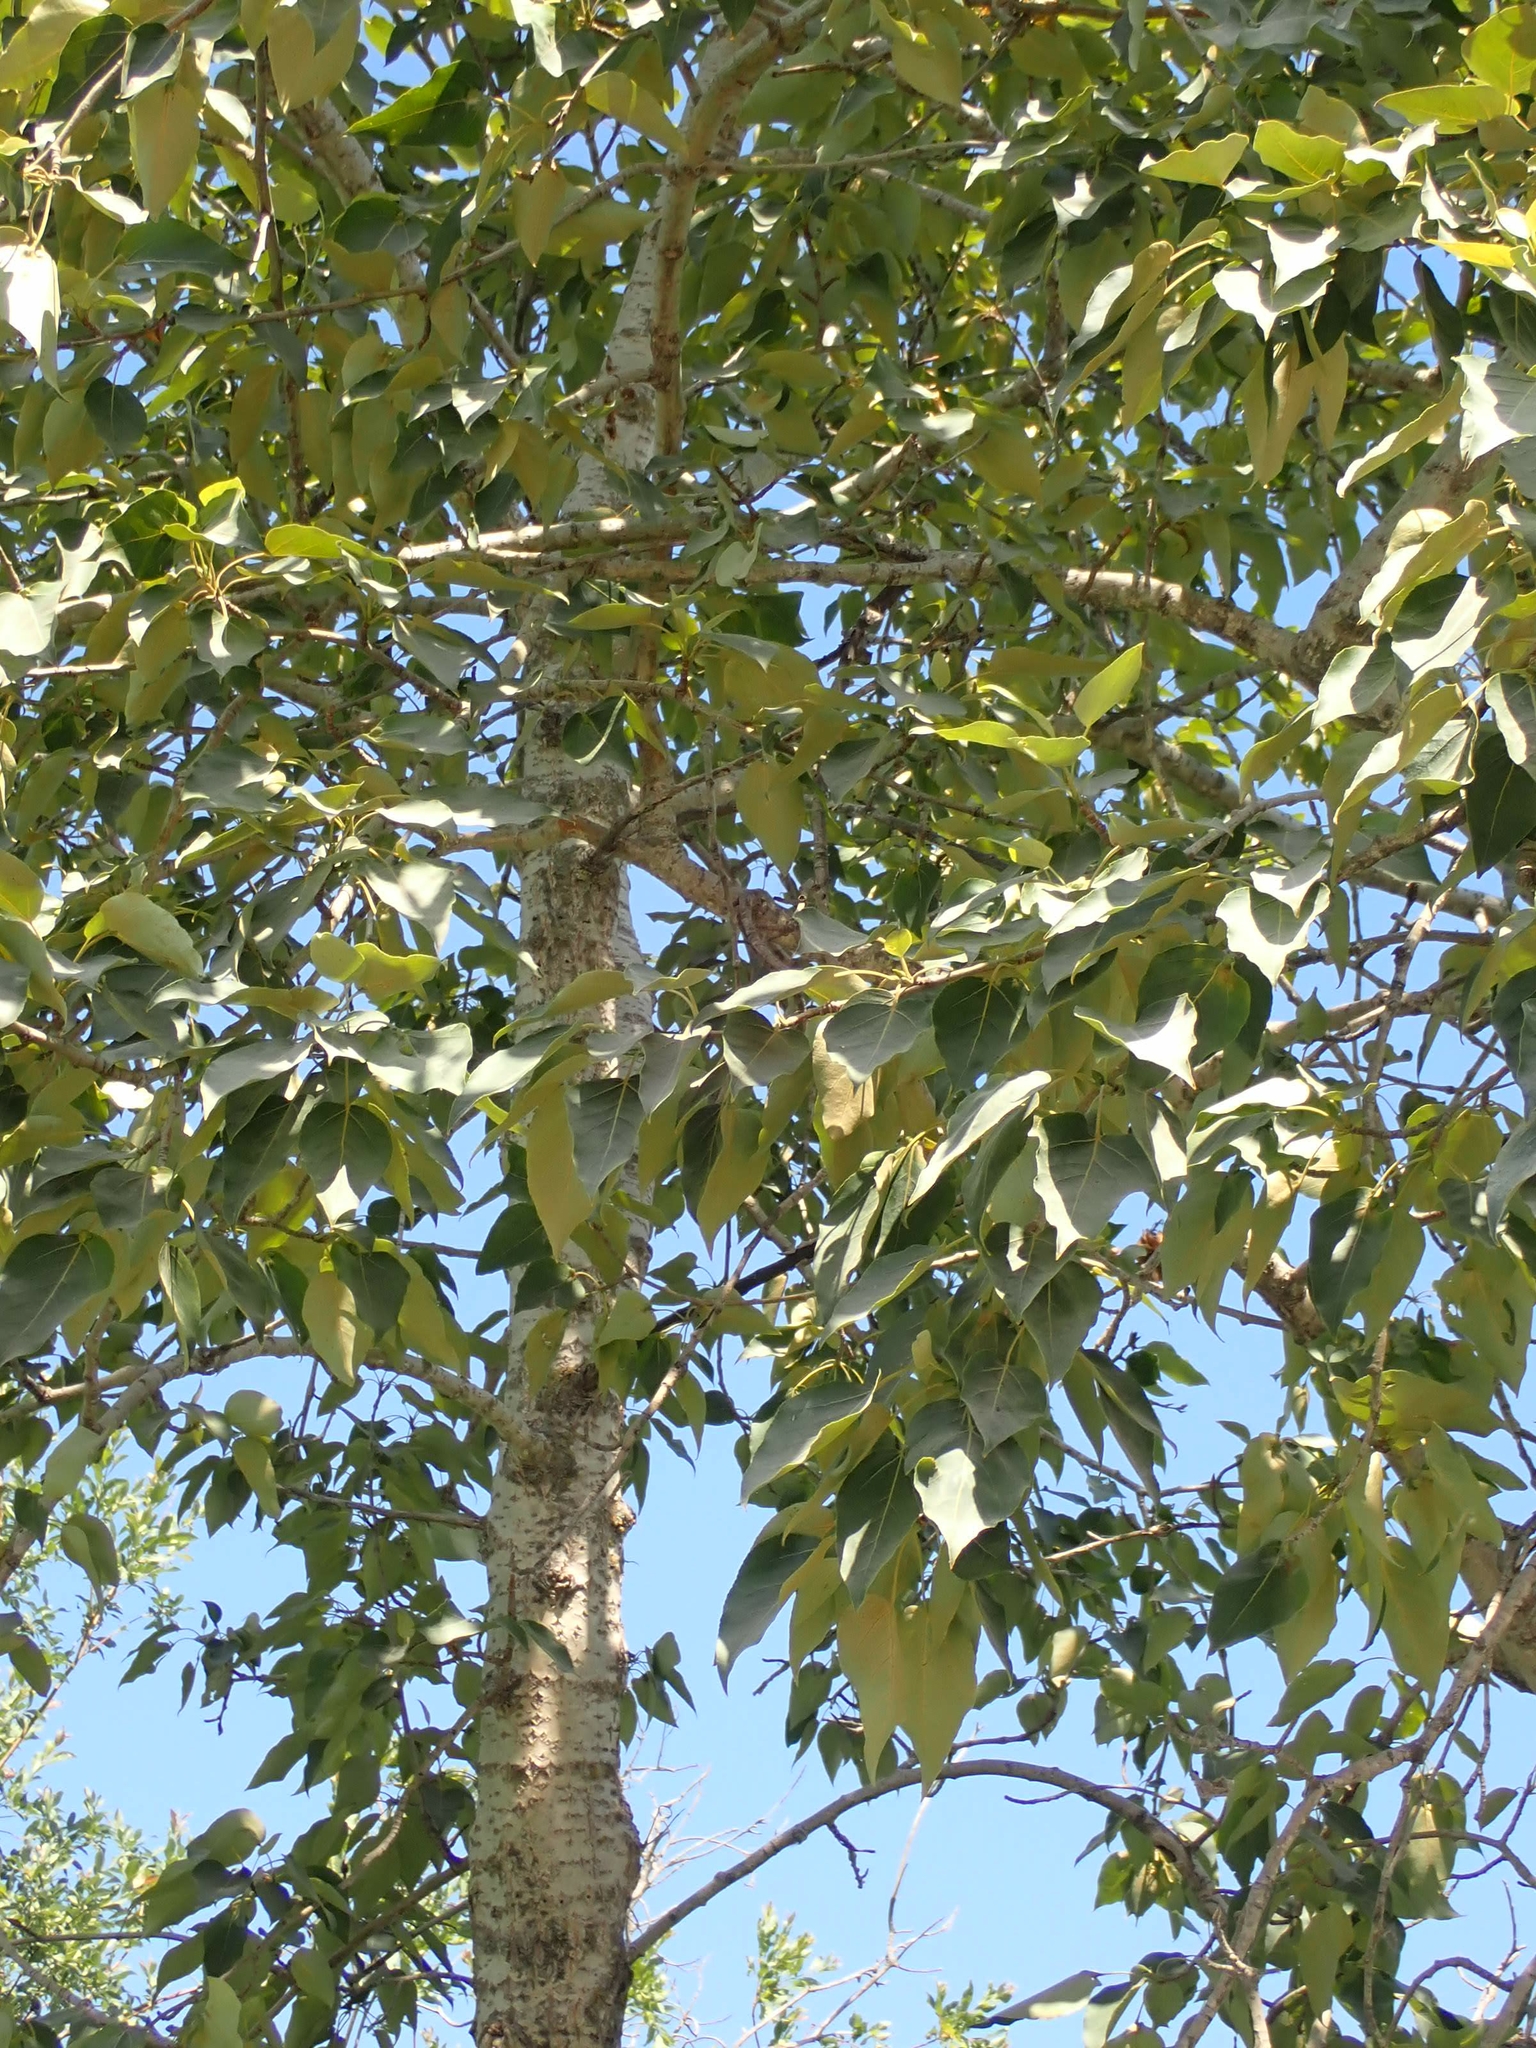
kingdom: Plantae
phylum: Tracheophyta
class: Magnoliopsida
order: Malpighiales
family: Salicaceae
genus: Populus
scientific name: Populus balsamifera
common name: Balsam poplar
